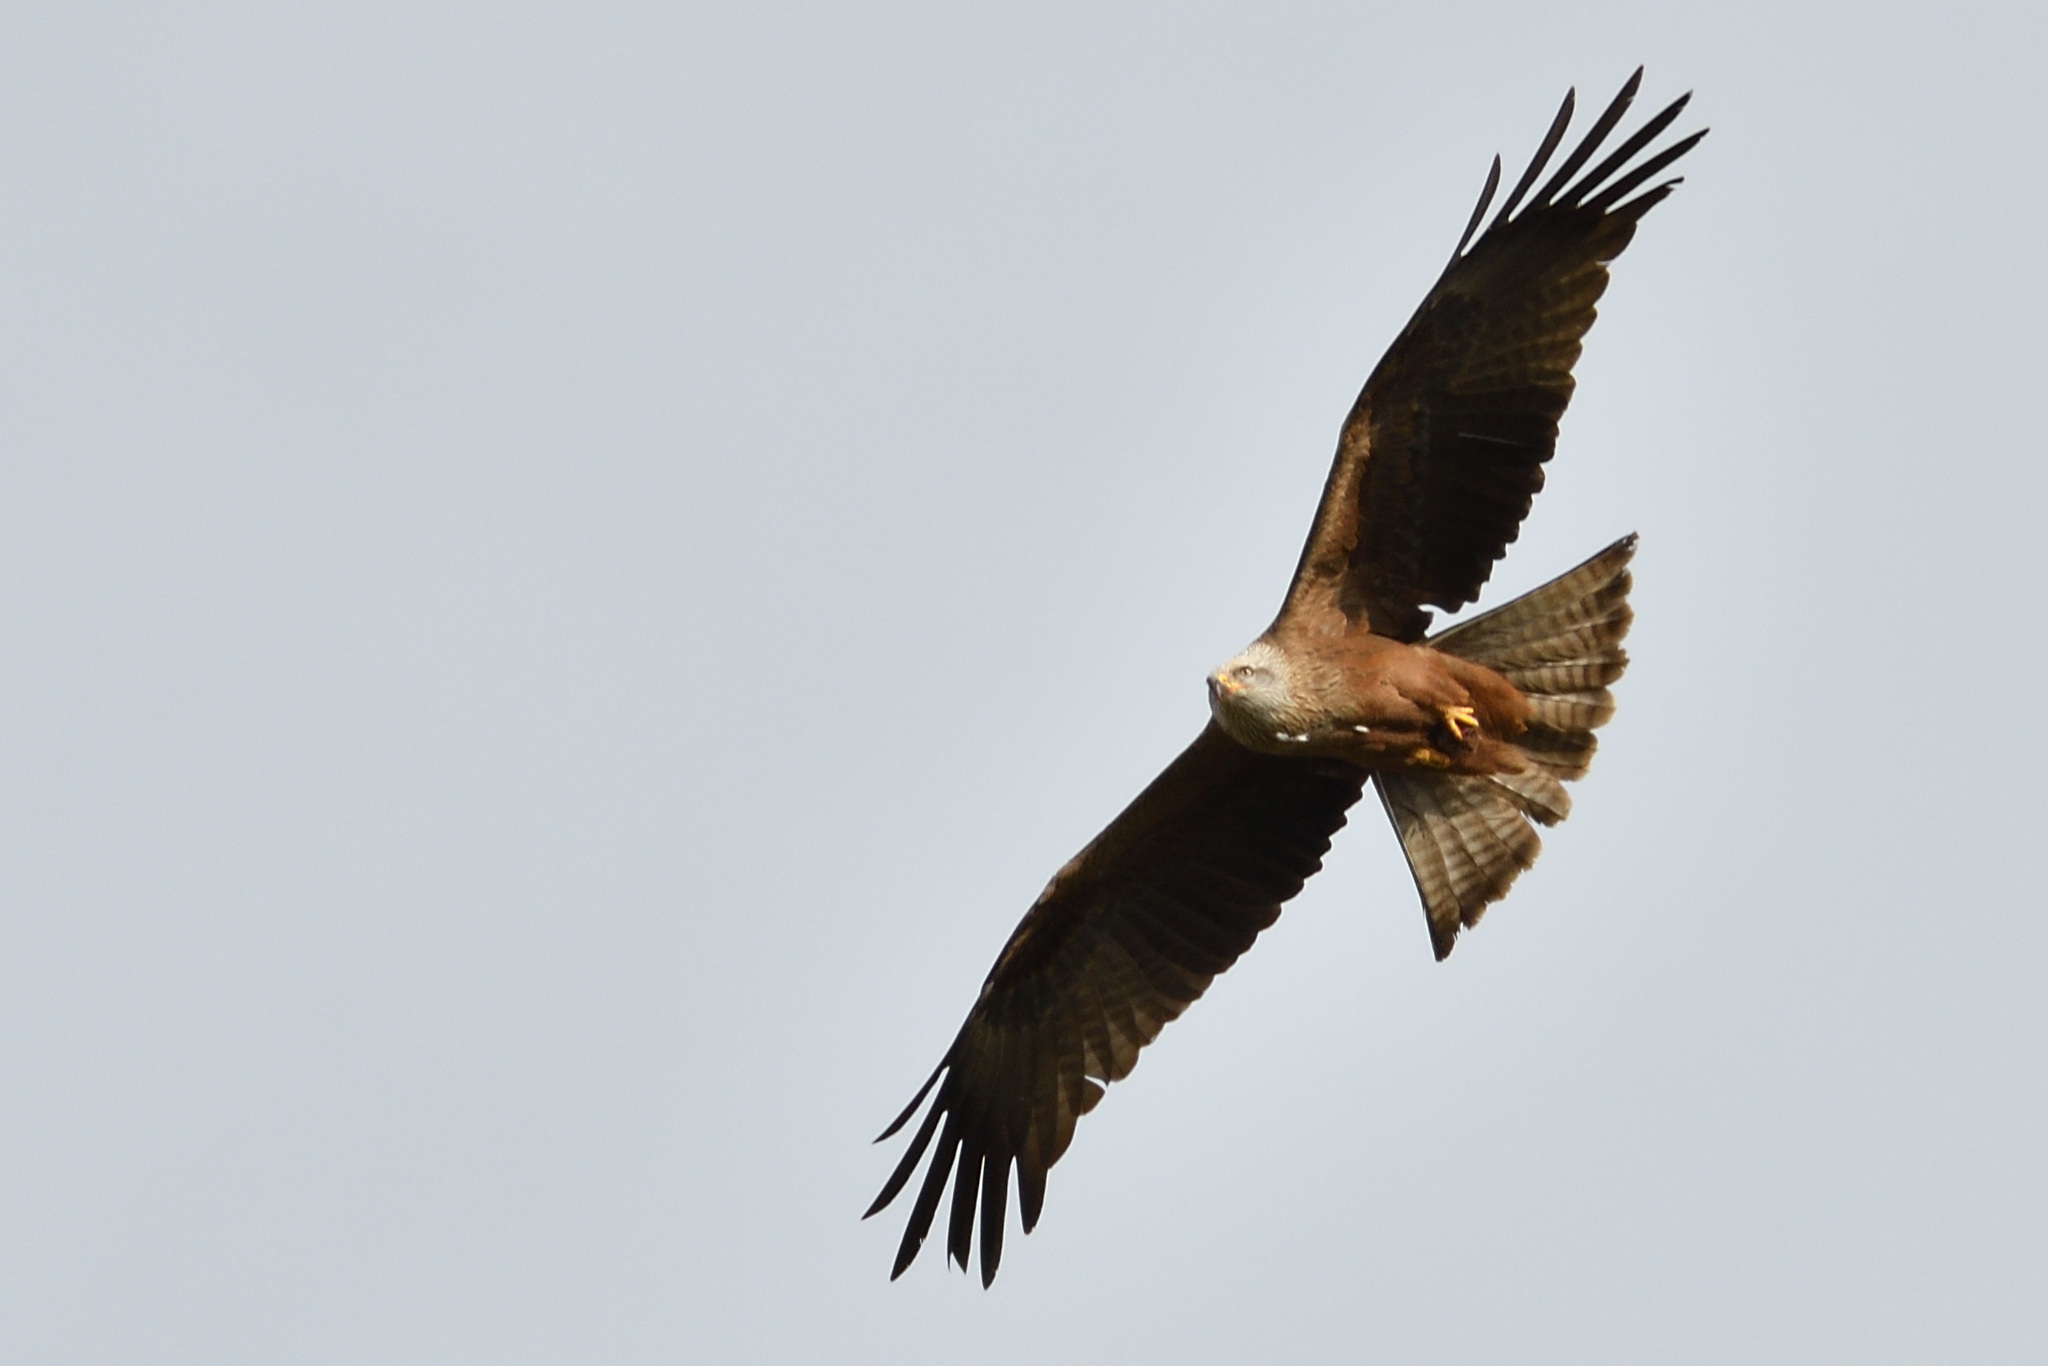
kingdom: Animalia
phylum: Chordata
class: Aves
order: Accipitriformes
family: Accipitridae
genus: Milvus
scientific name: Milvus migrans
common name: Black kite
